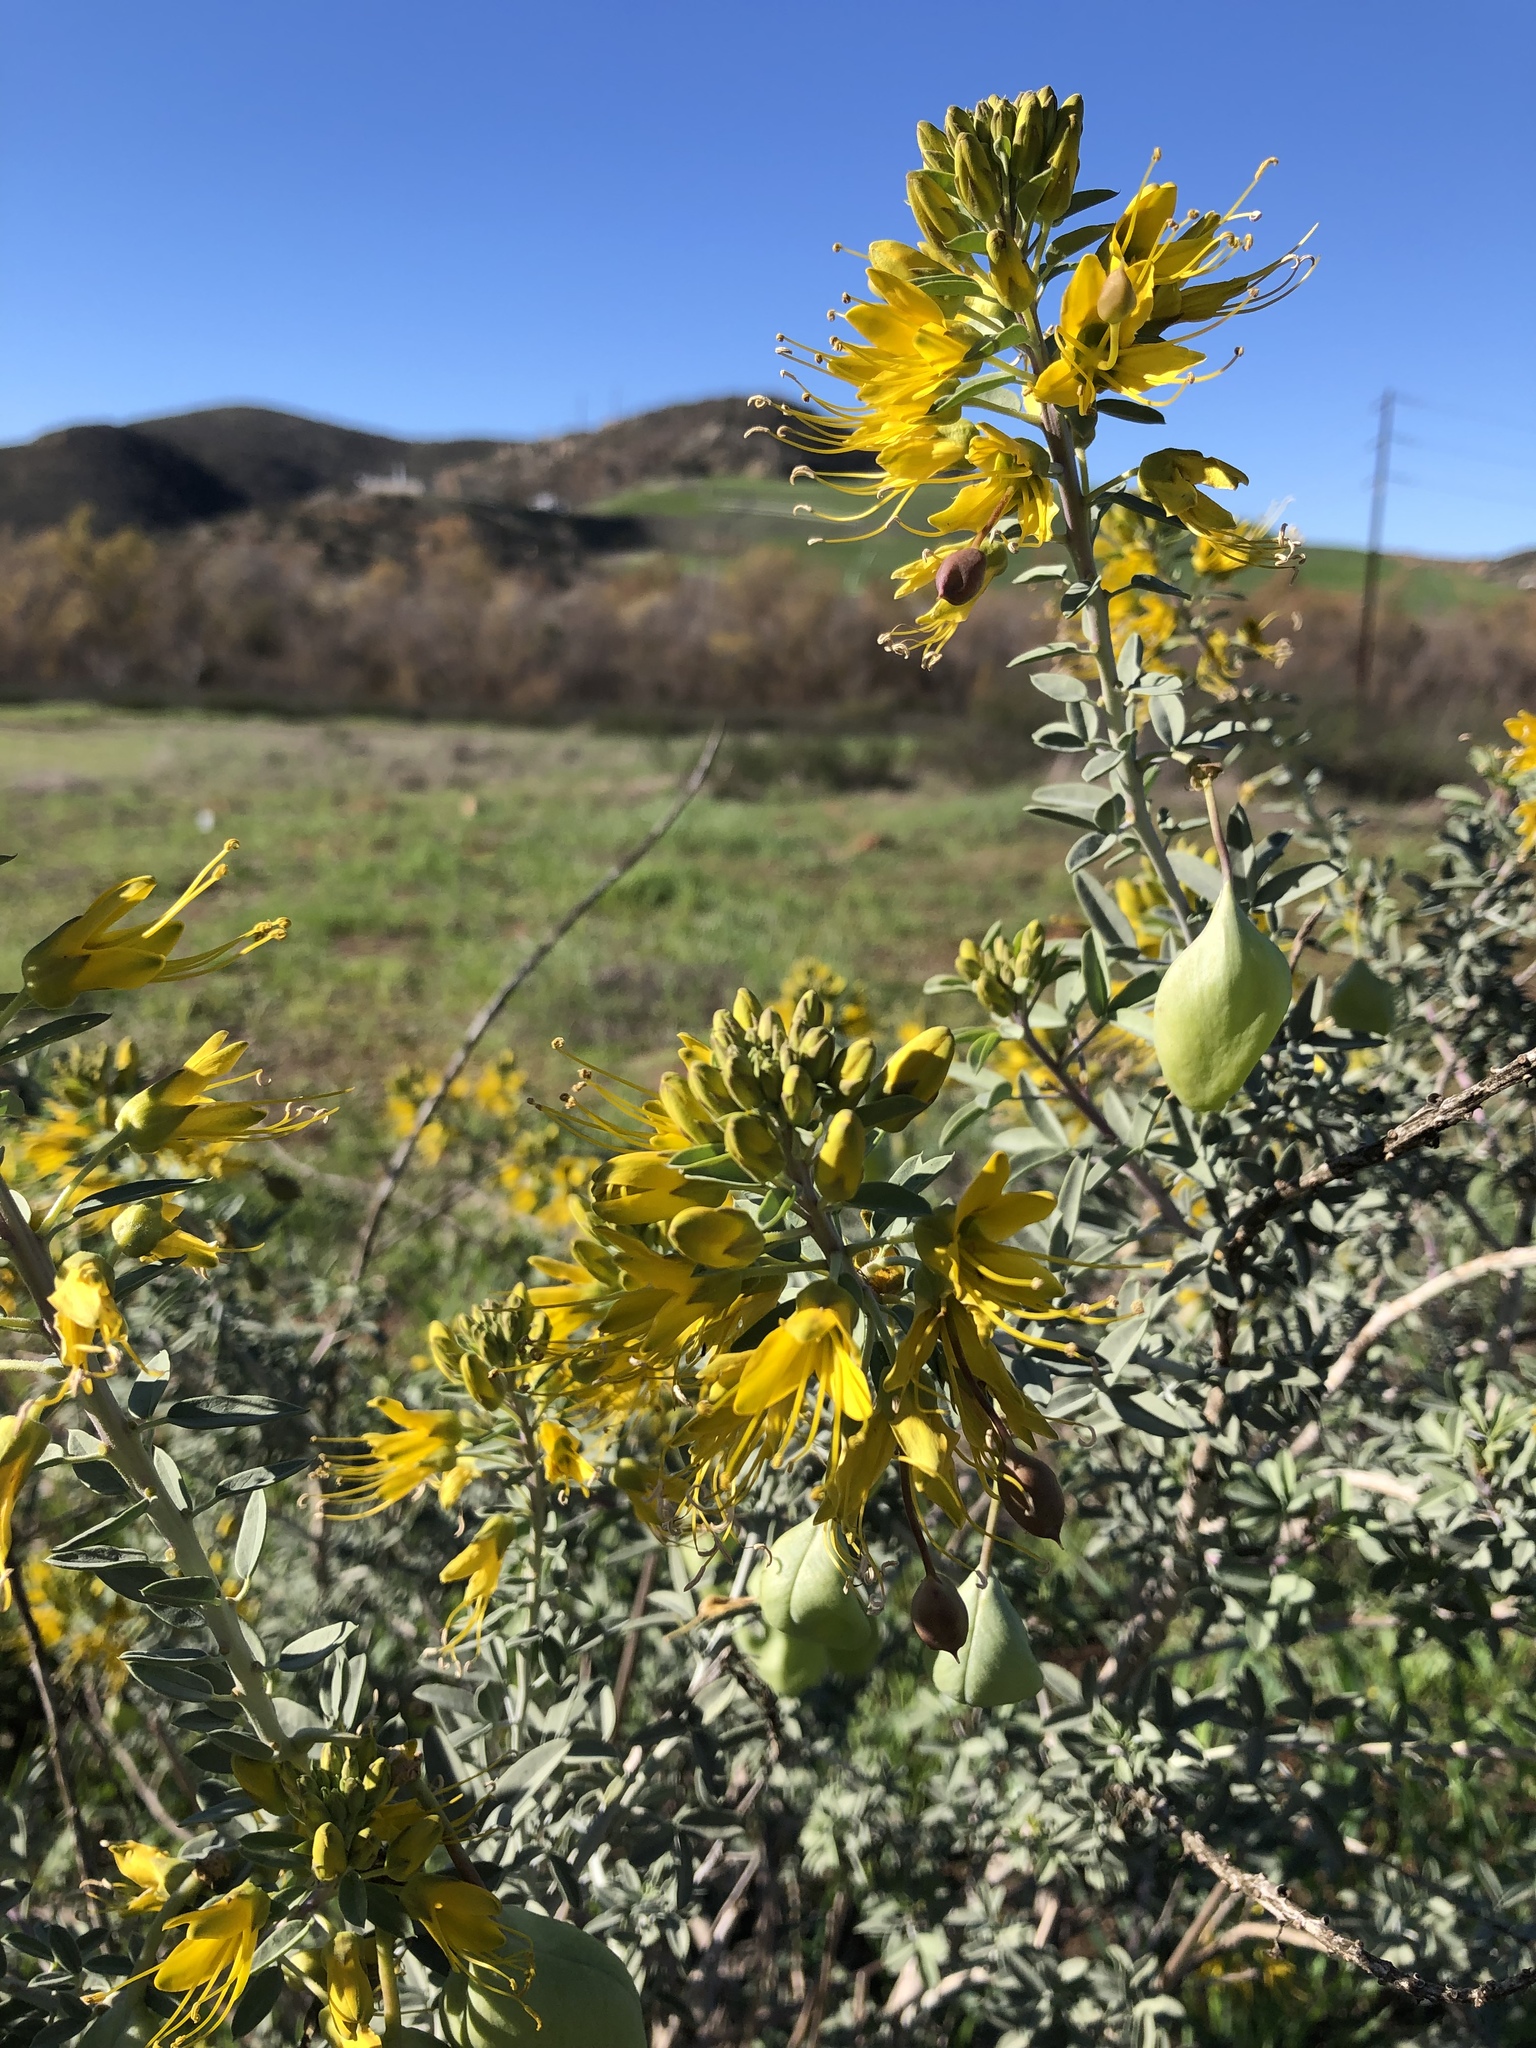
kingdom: Plantae
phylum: Tracheophyta
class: Magnoliopsida
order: Brassicales
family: Cleomaceae
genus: Cleomella
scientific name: Cleomella arborea
